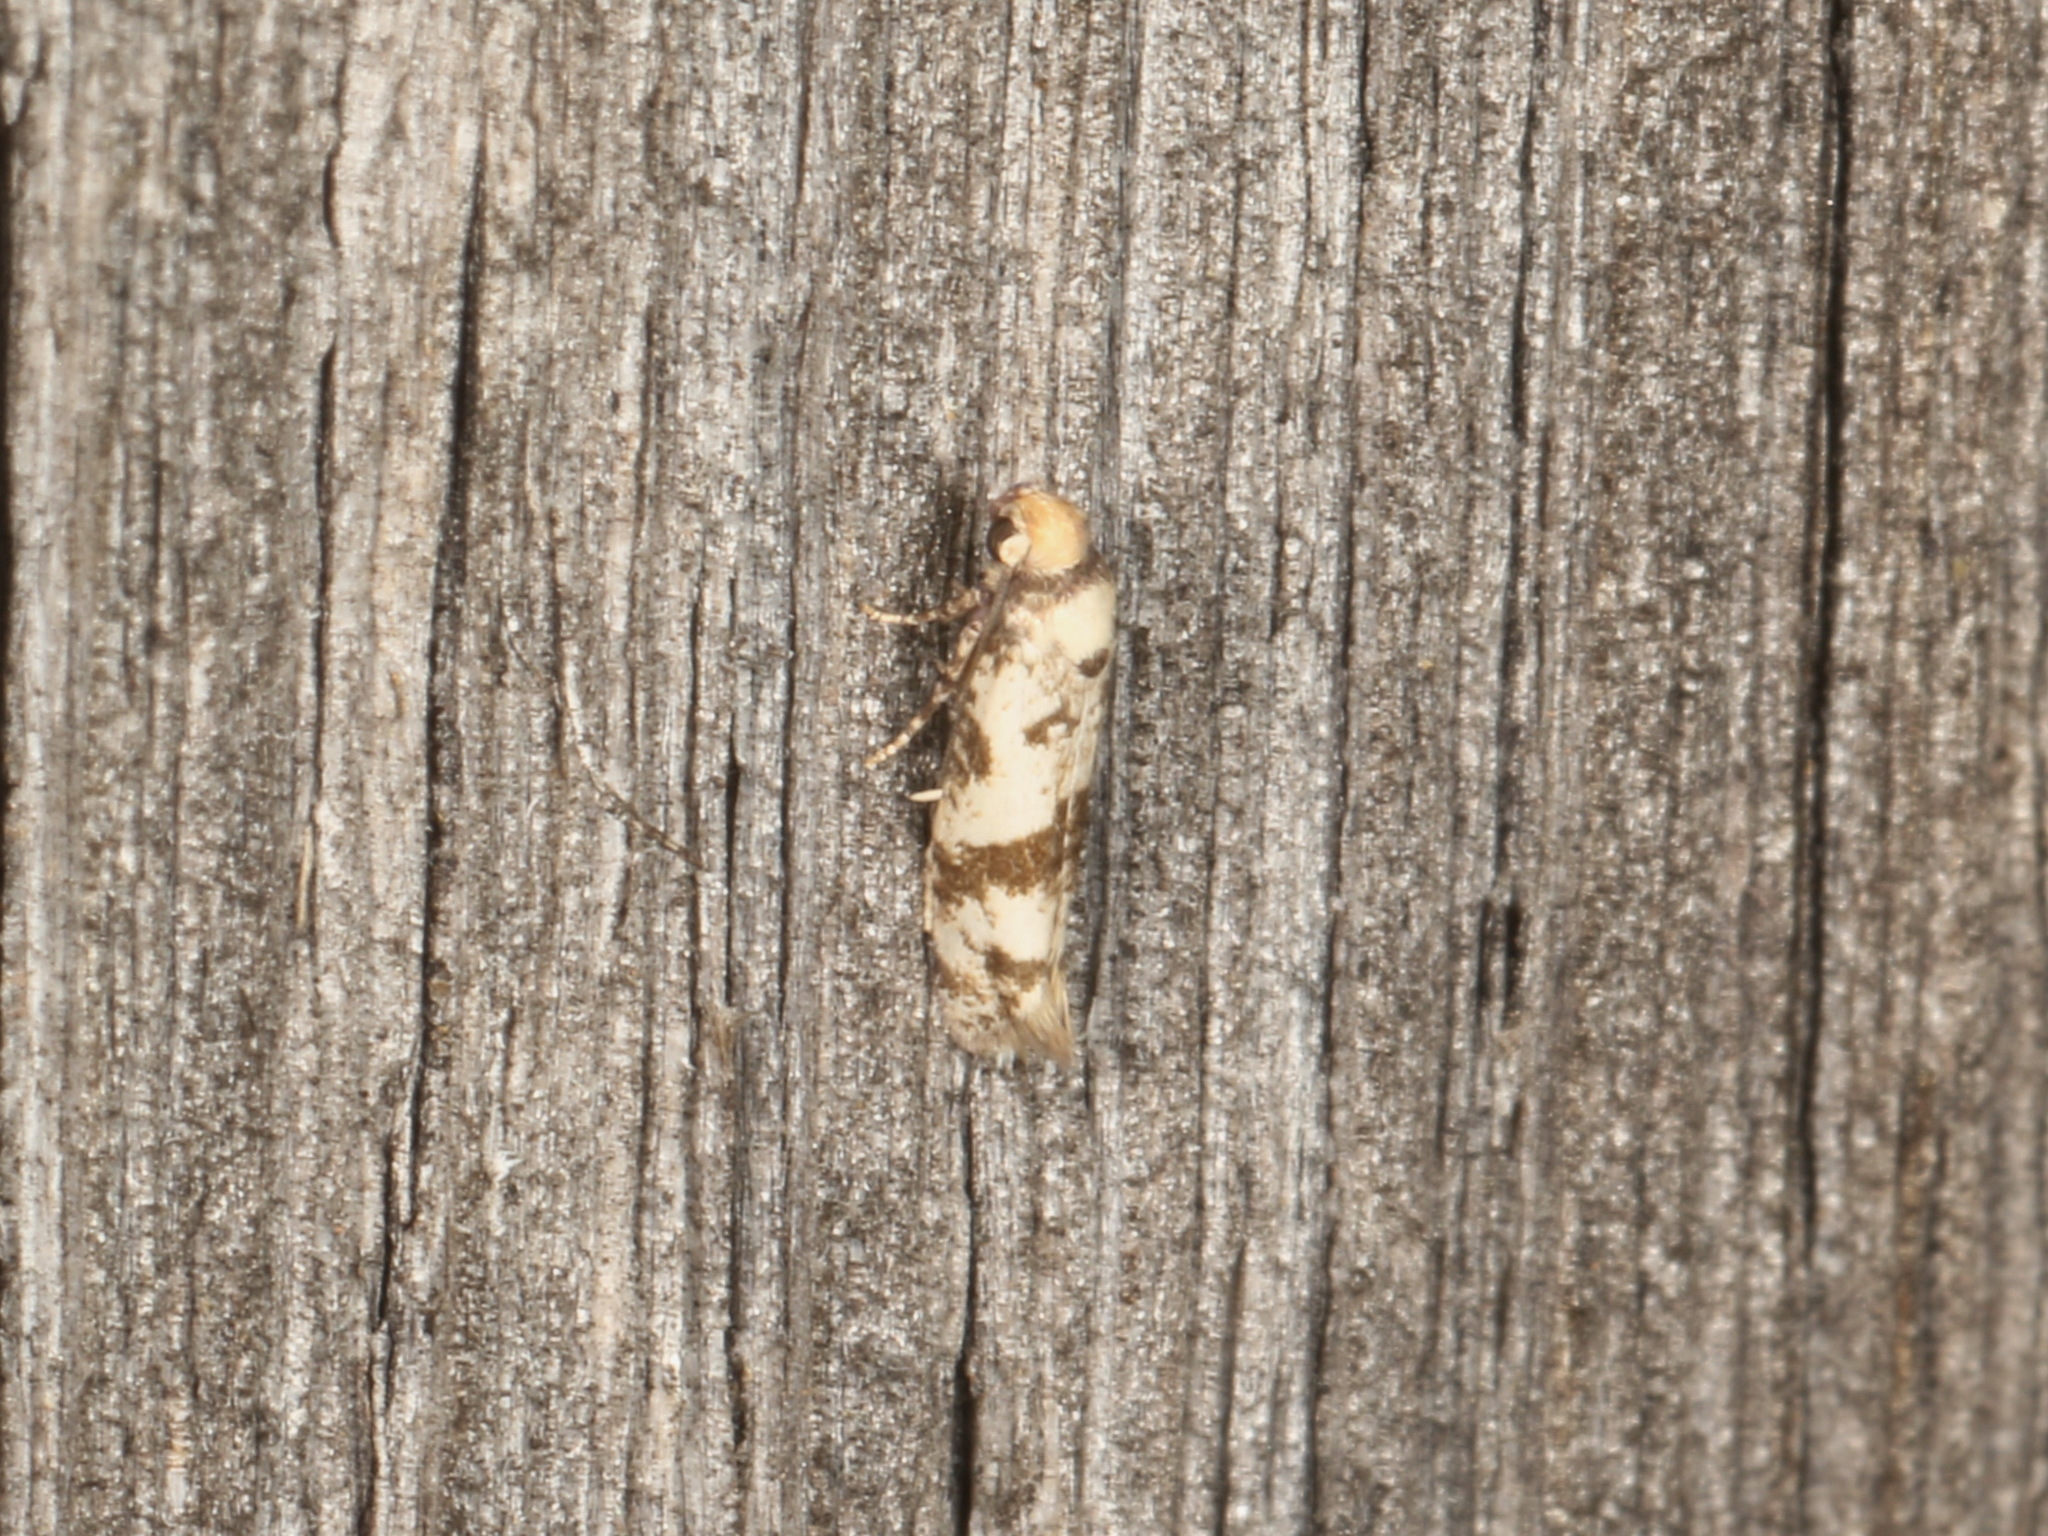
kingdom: Animalia
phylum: Arthropoda
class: Insecta
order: Lepidoptera
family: Praydidae
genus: Prays
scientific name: Prays parilis
